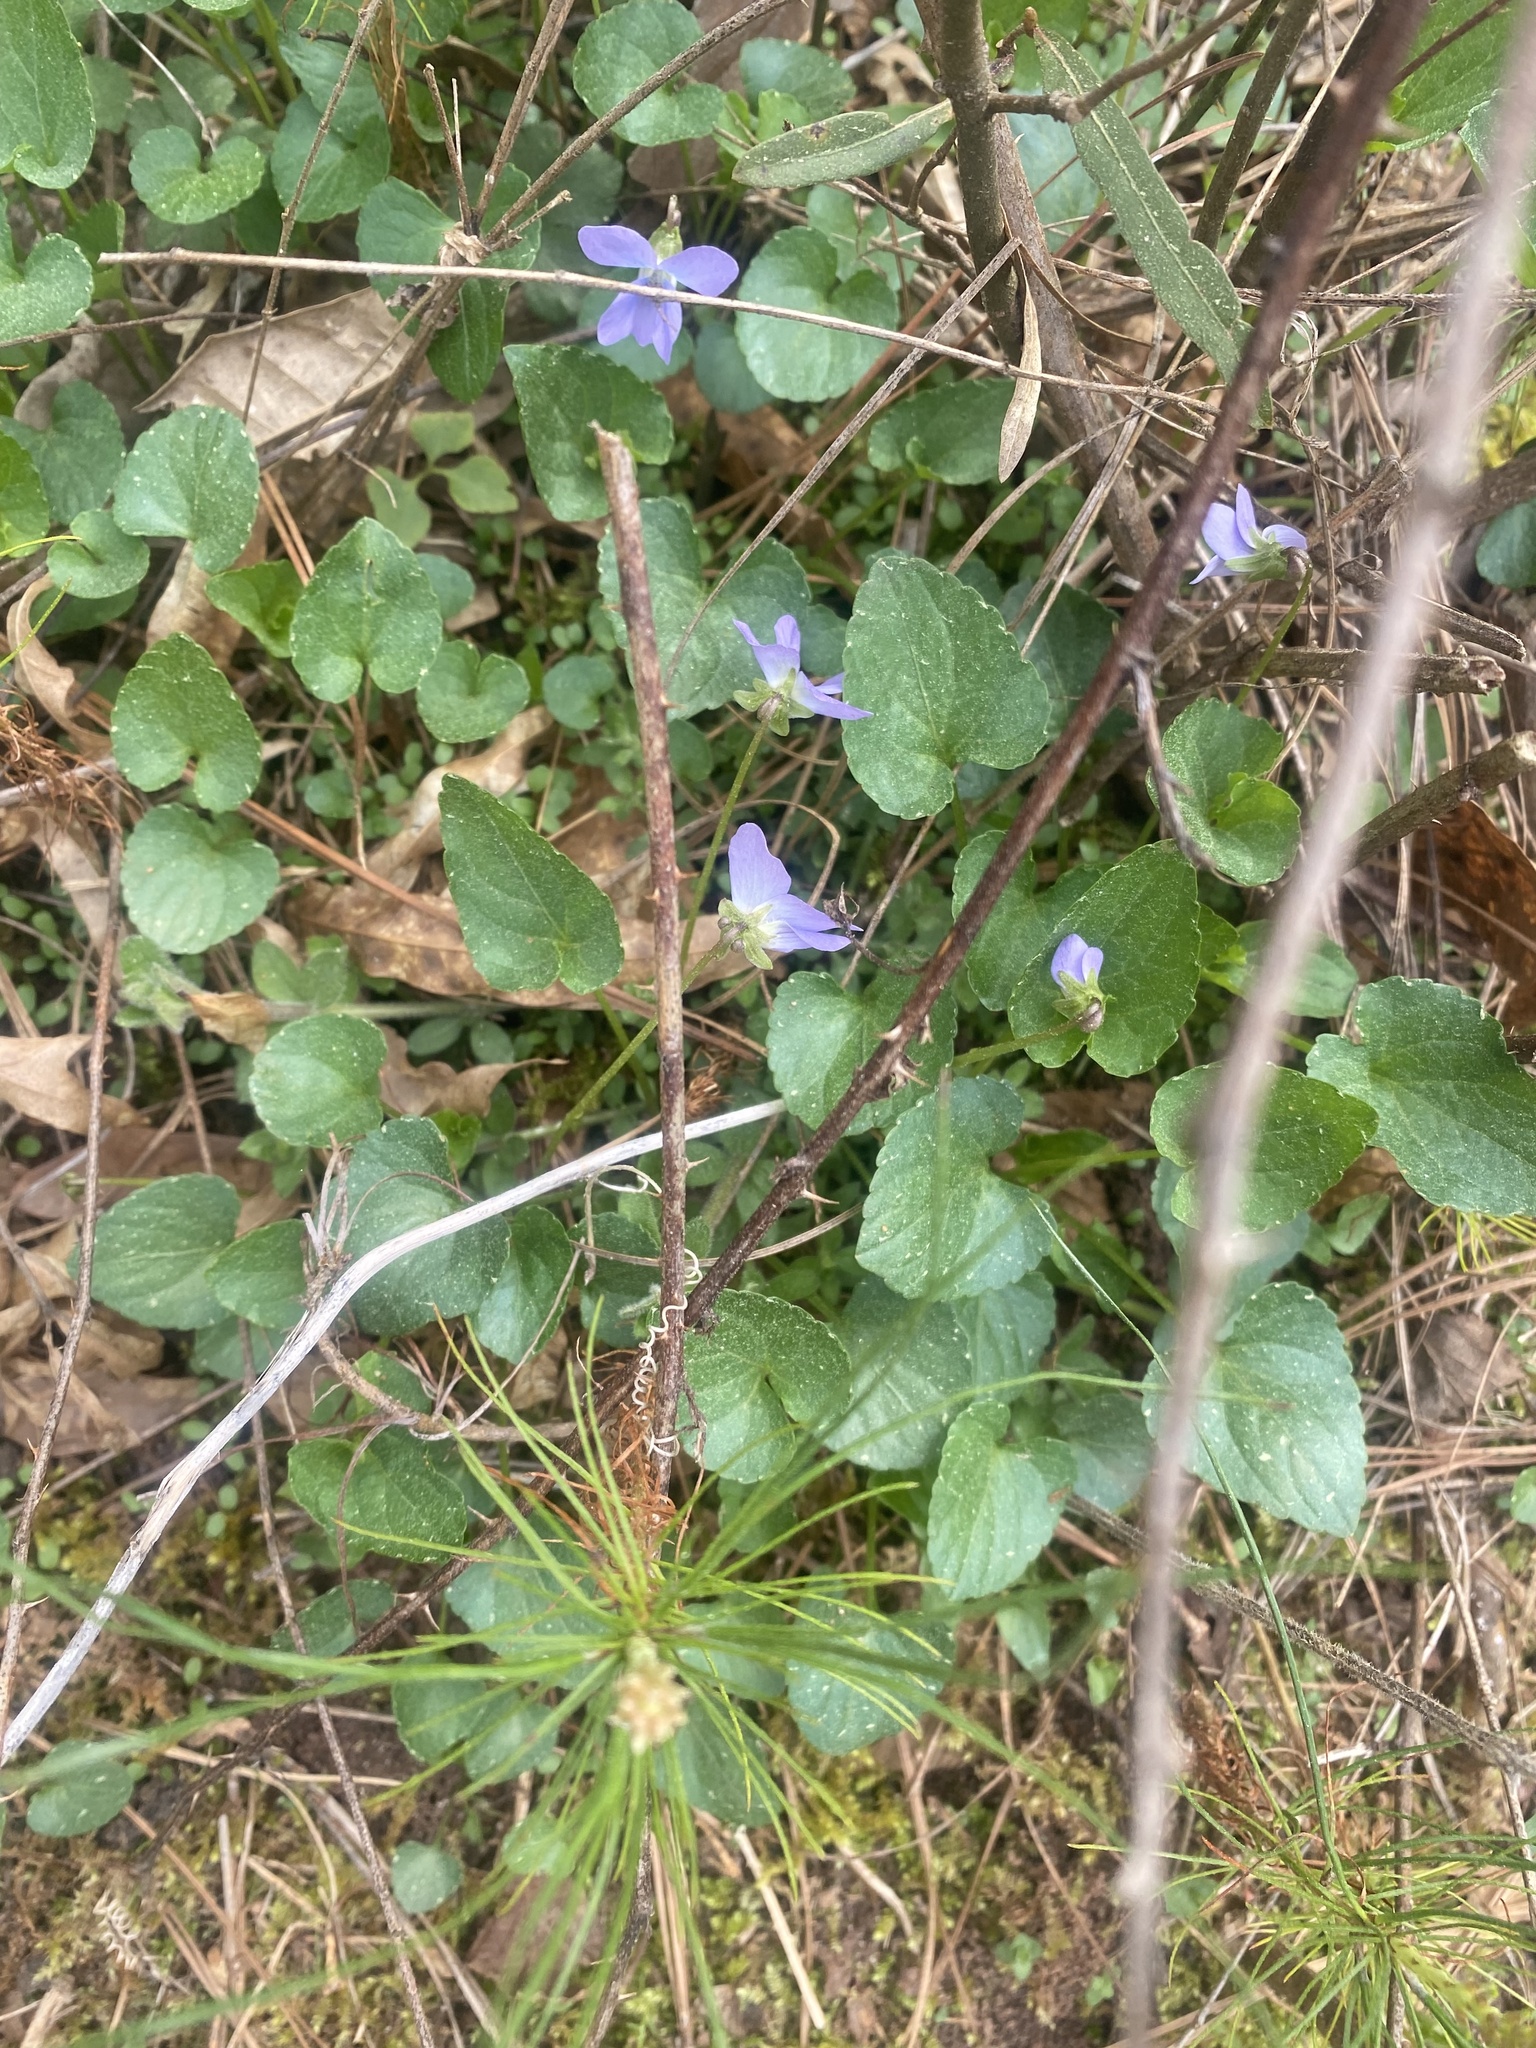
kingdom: Plantae
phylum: Tracheophyta
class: Magnoliopsida
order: Malpighiales
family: Violaceae
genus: Viola
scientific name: Viola cucullata
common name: Marsh blue violet
